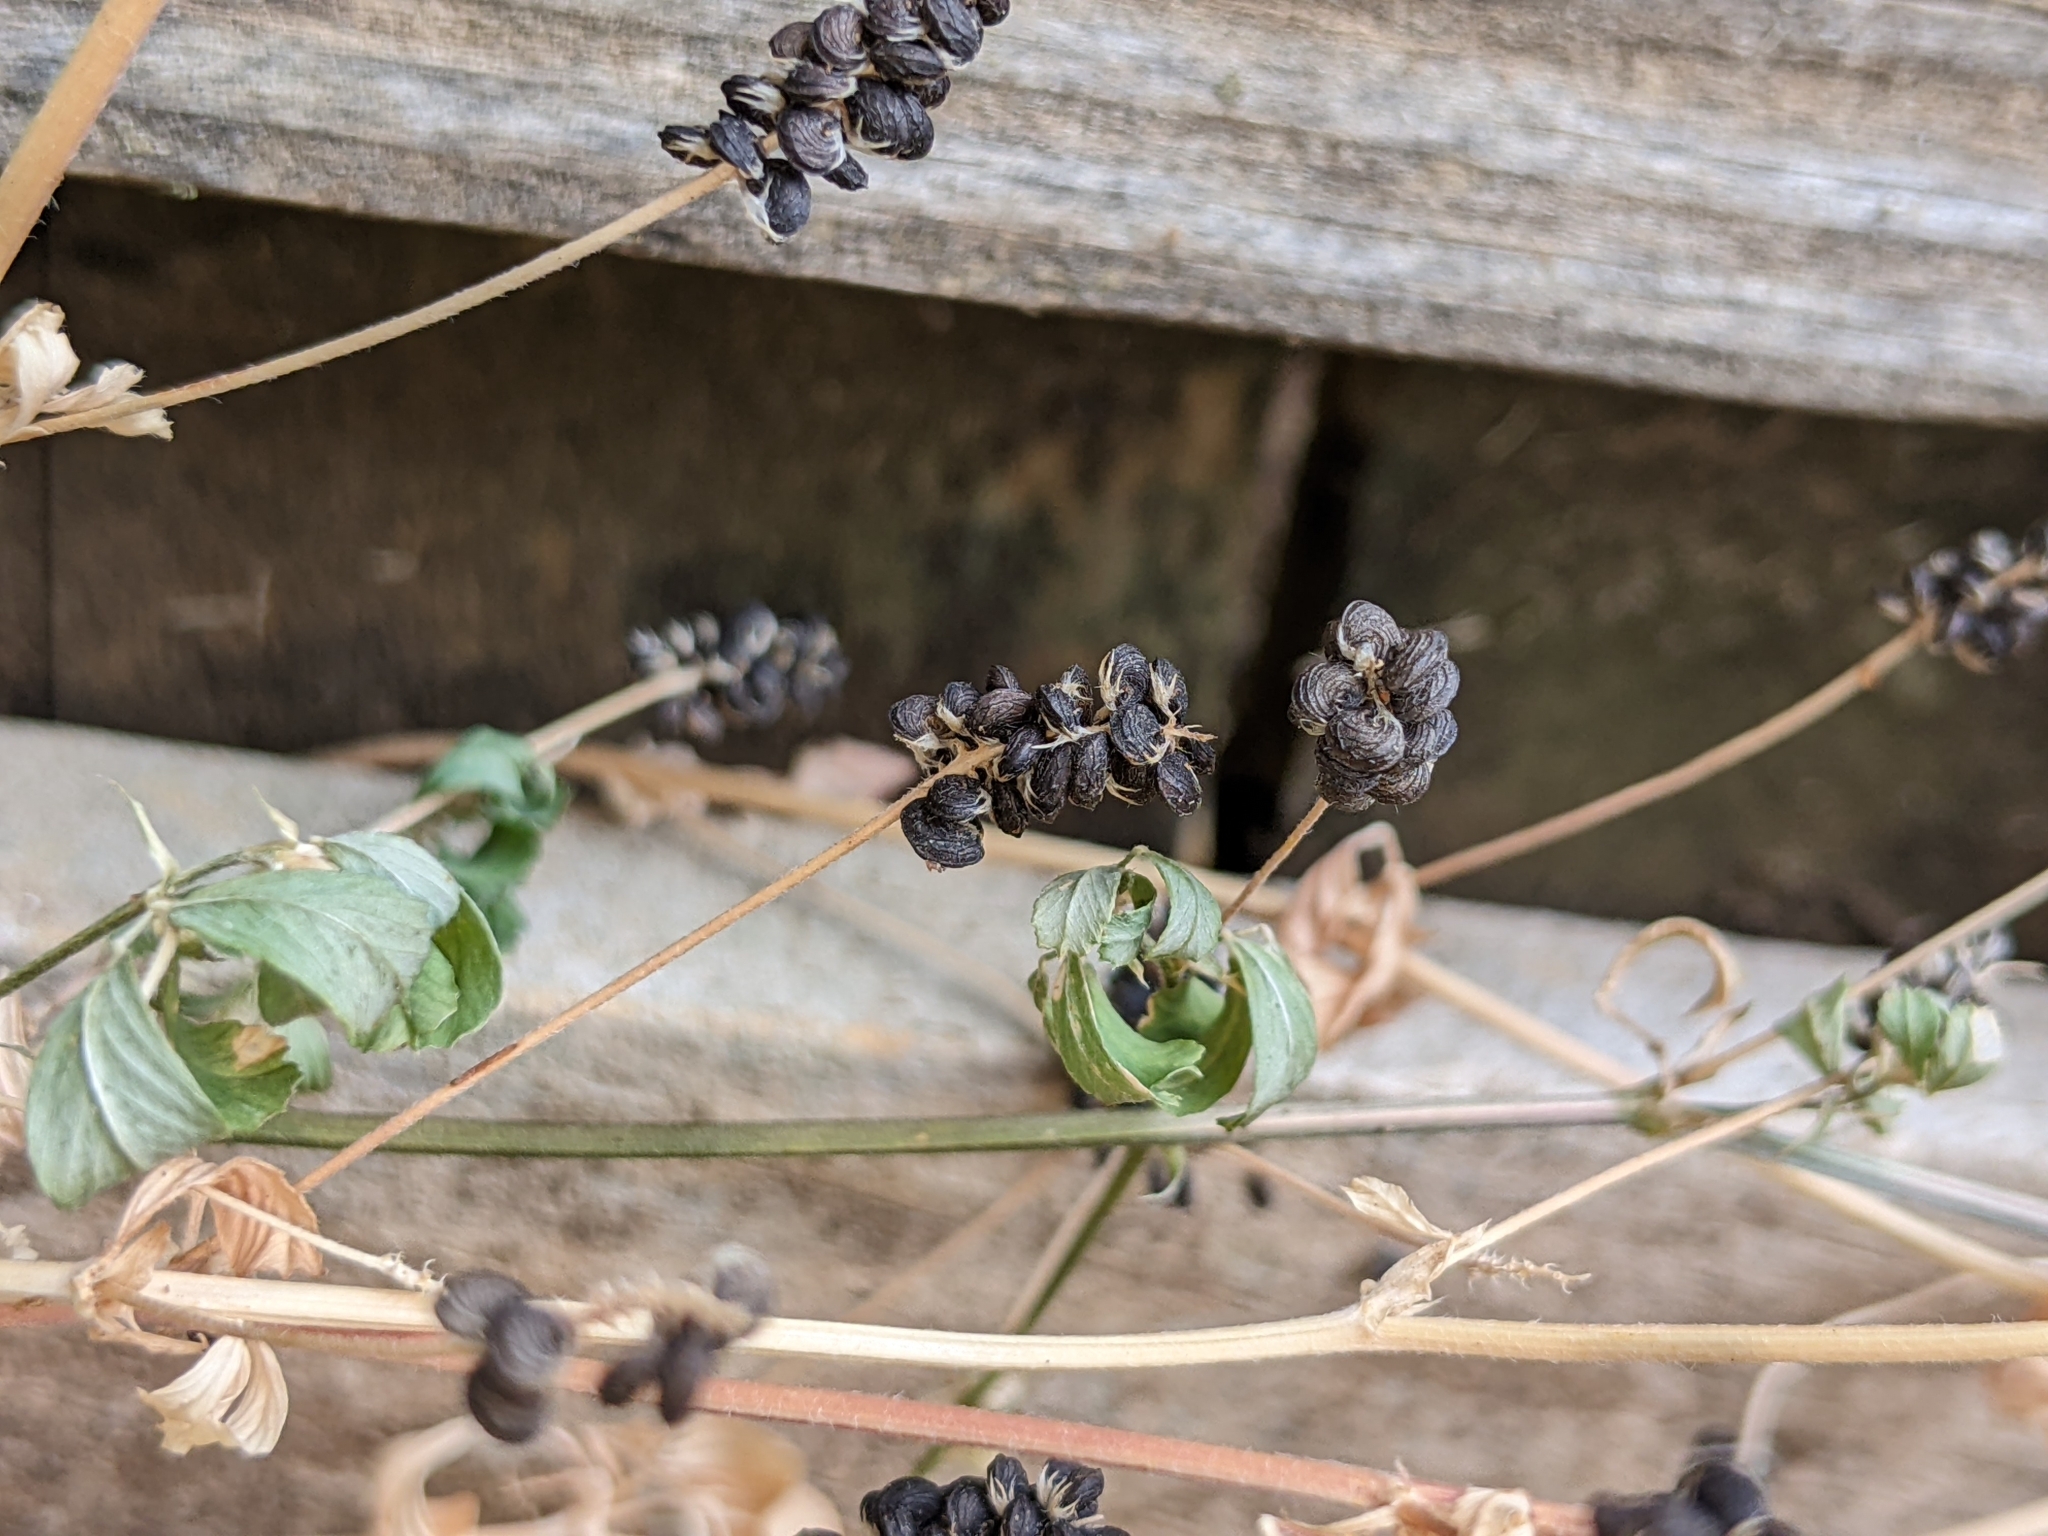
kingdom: Plantae
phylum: Tracheophyta
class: Magnoliopsida
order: Fabales
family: Fabaceae
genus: Medicago
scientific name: Medicago lupulina
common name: Black medick
